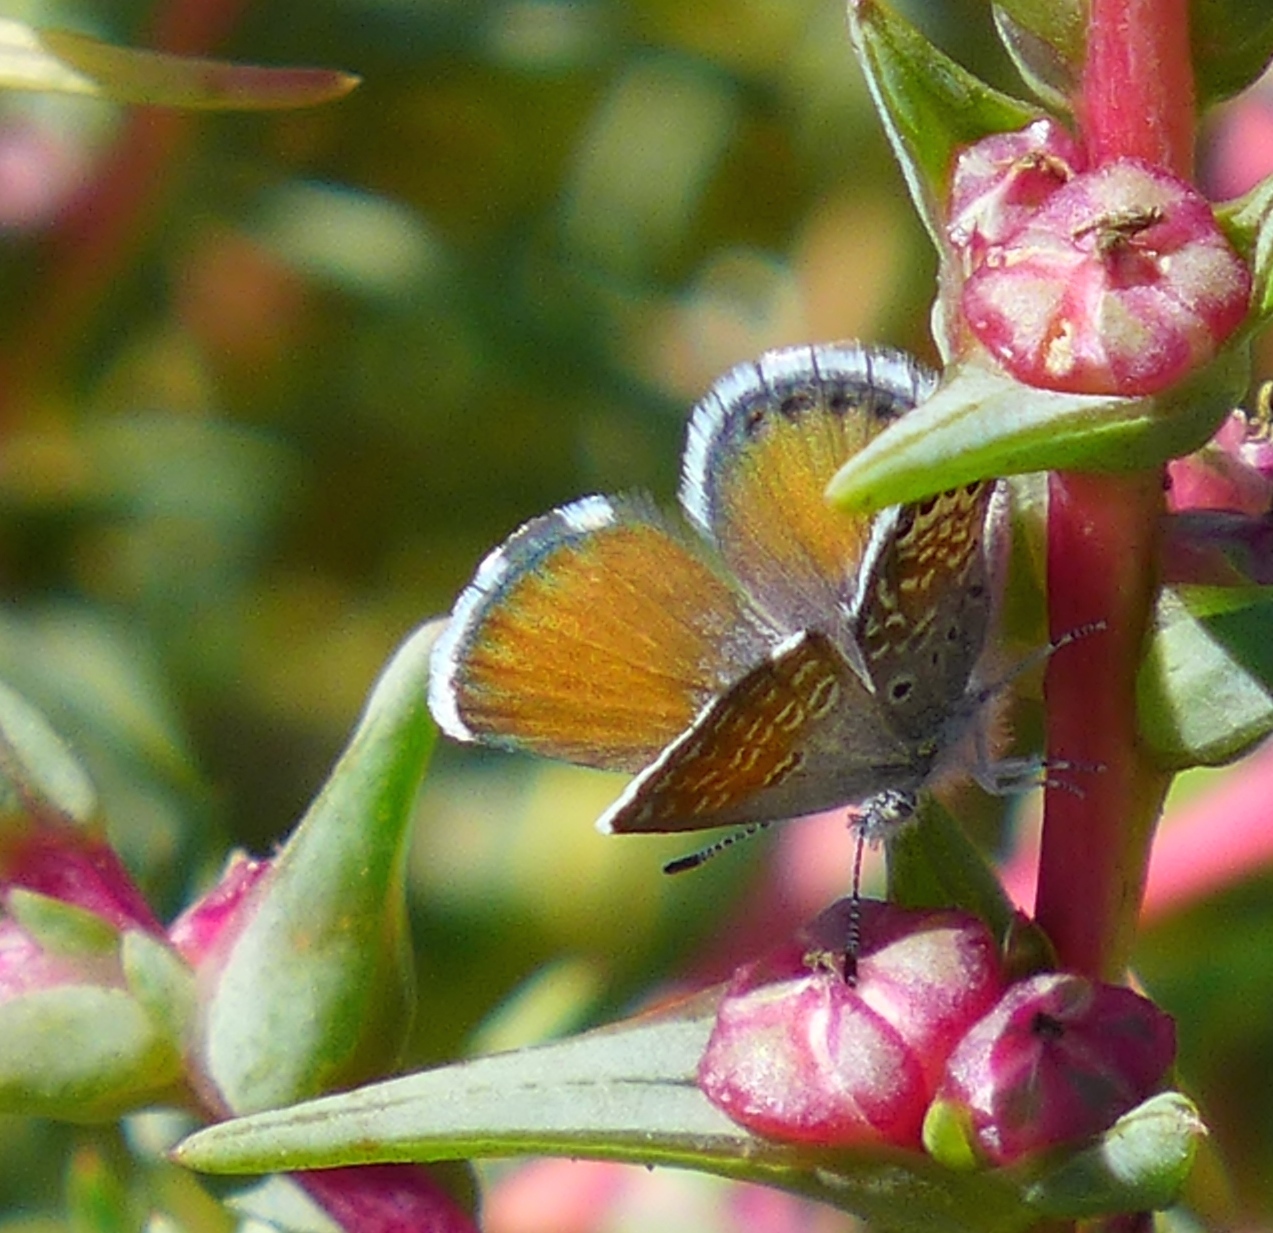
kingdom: Animalia
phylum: Arthropoda
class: Insecta
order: Lepidoptera
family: Lycaenidae
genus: Brephidium
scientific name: Brephidium exilis
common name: Pygmy blue
